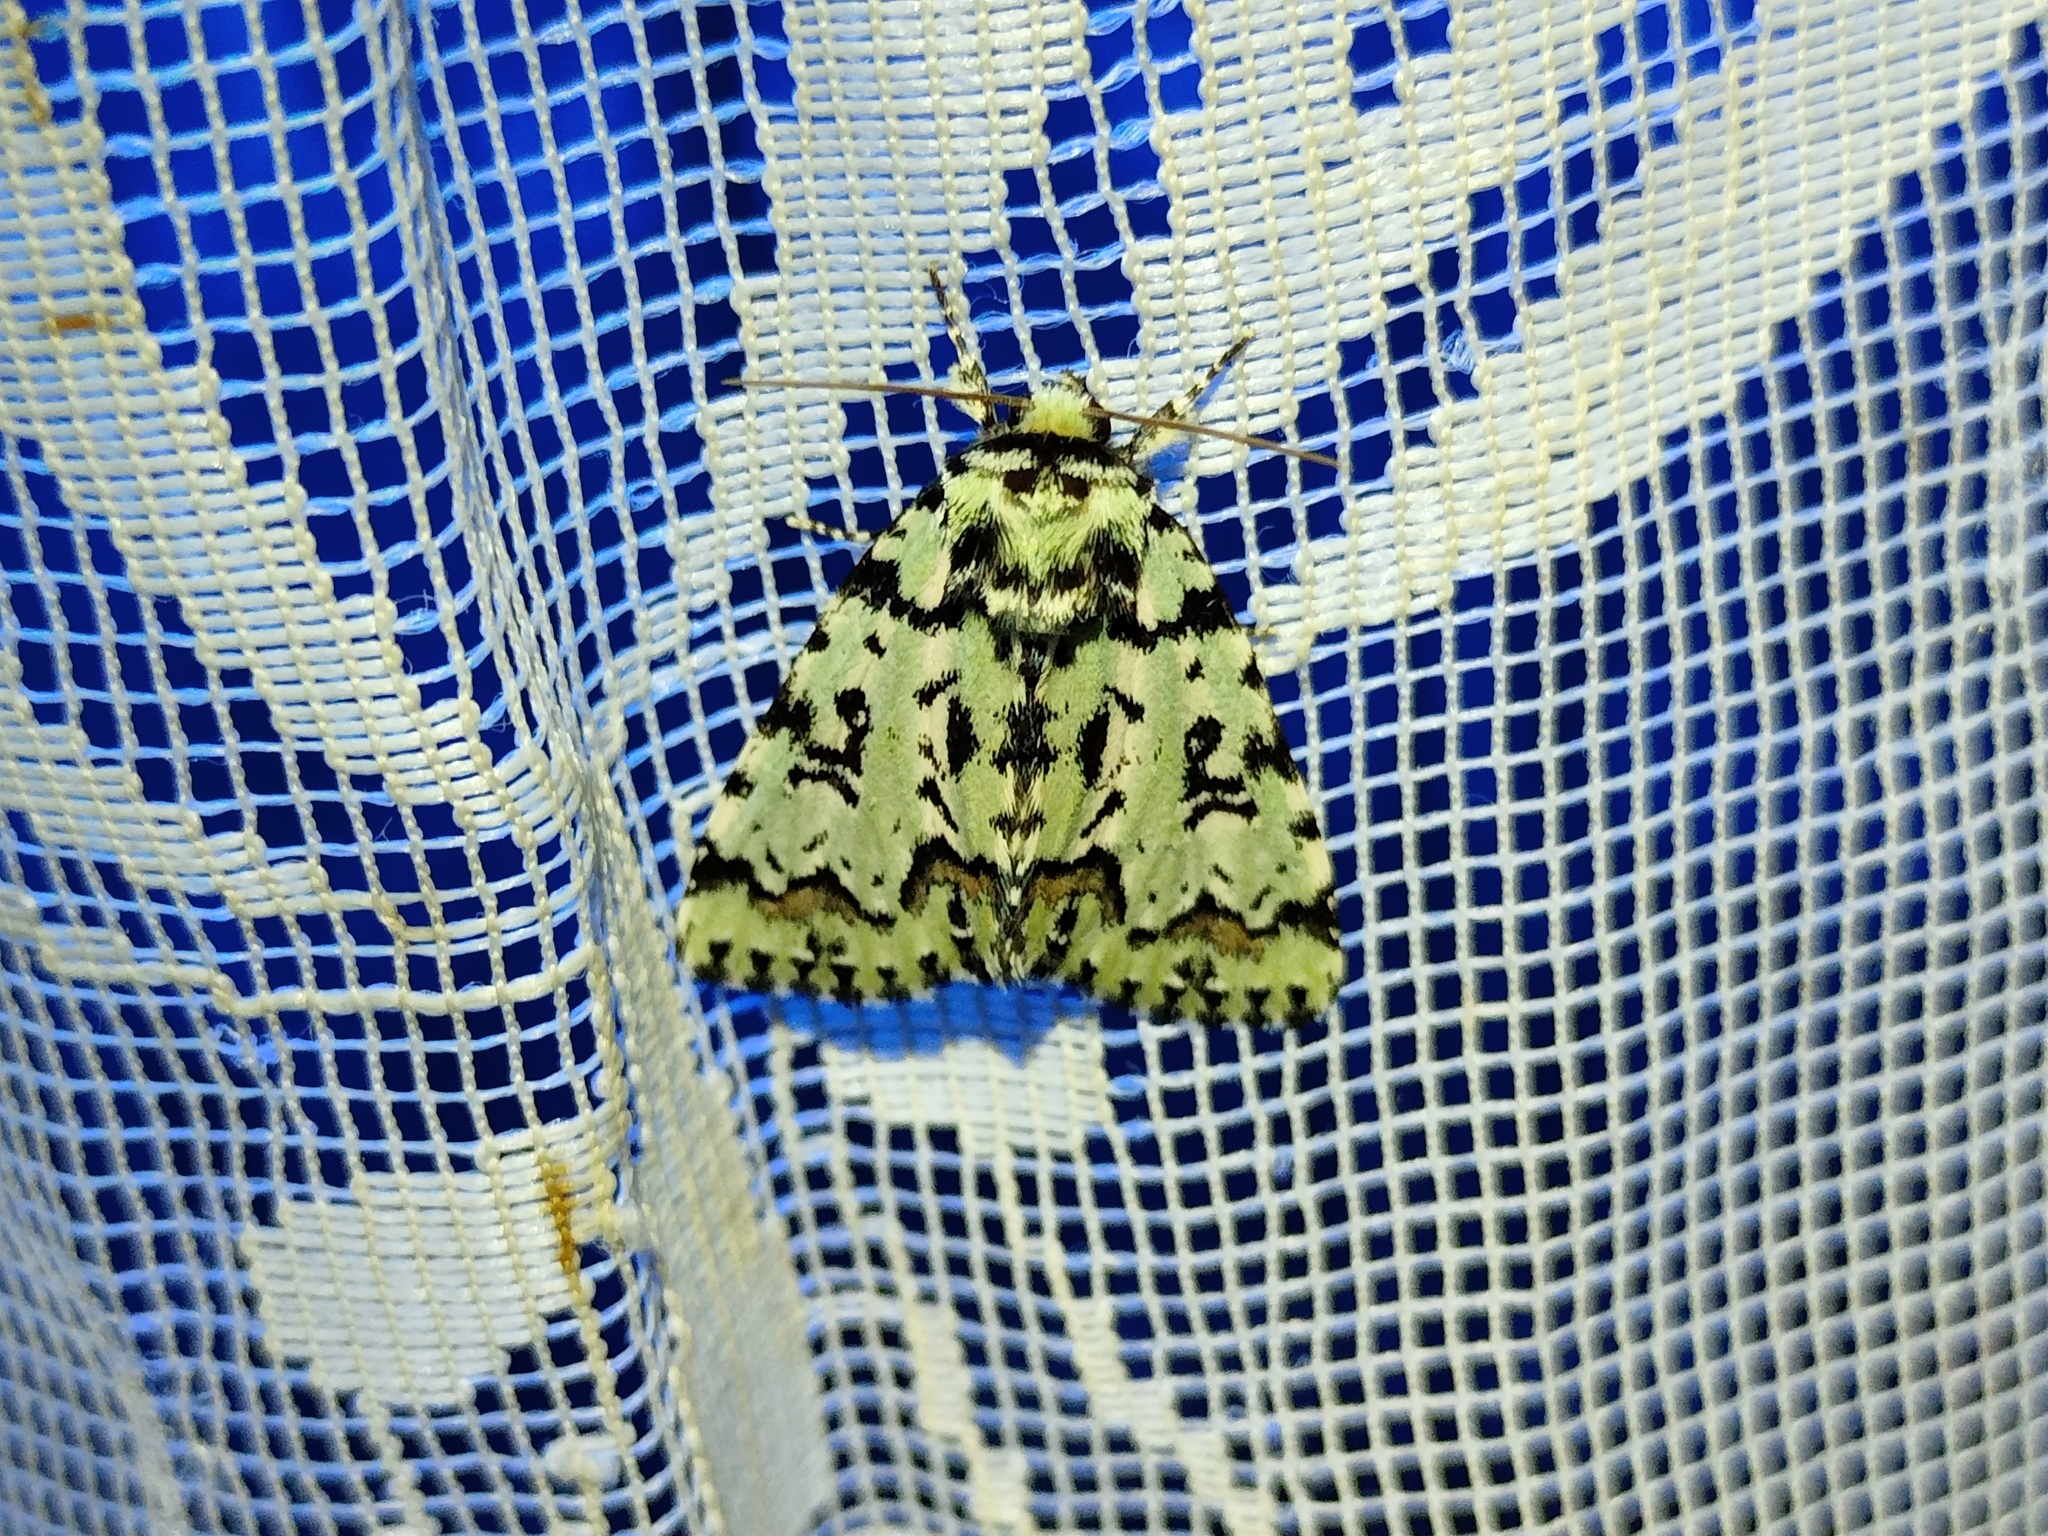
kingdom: Animalia
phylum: Arthropoda
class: Insecta
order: Lepidoptera
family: Noctuidae
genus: Moma
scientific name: Moma alpium
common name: Scarce merveille du jour
